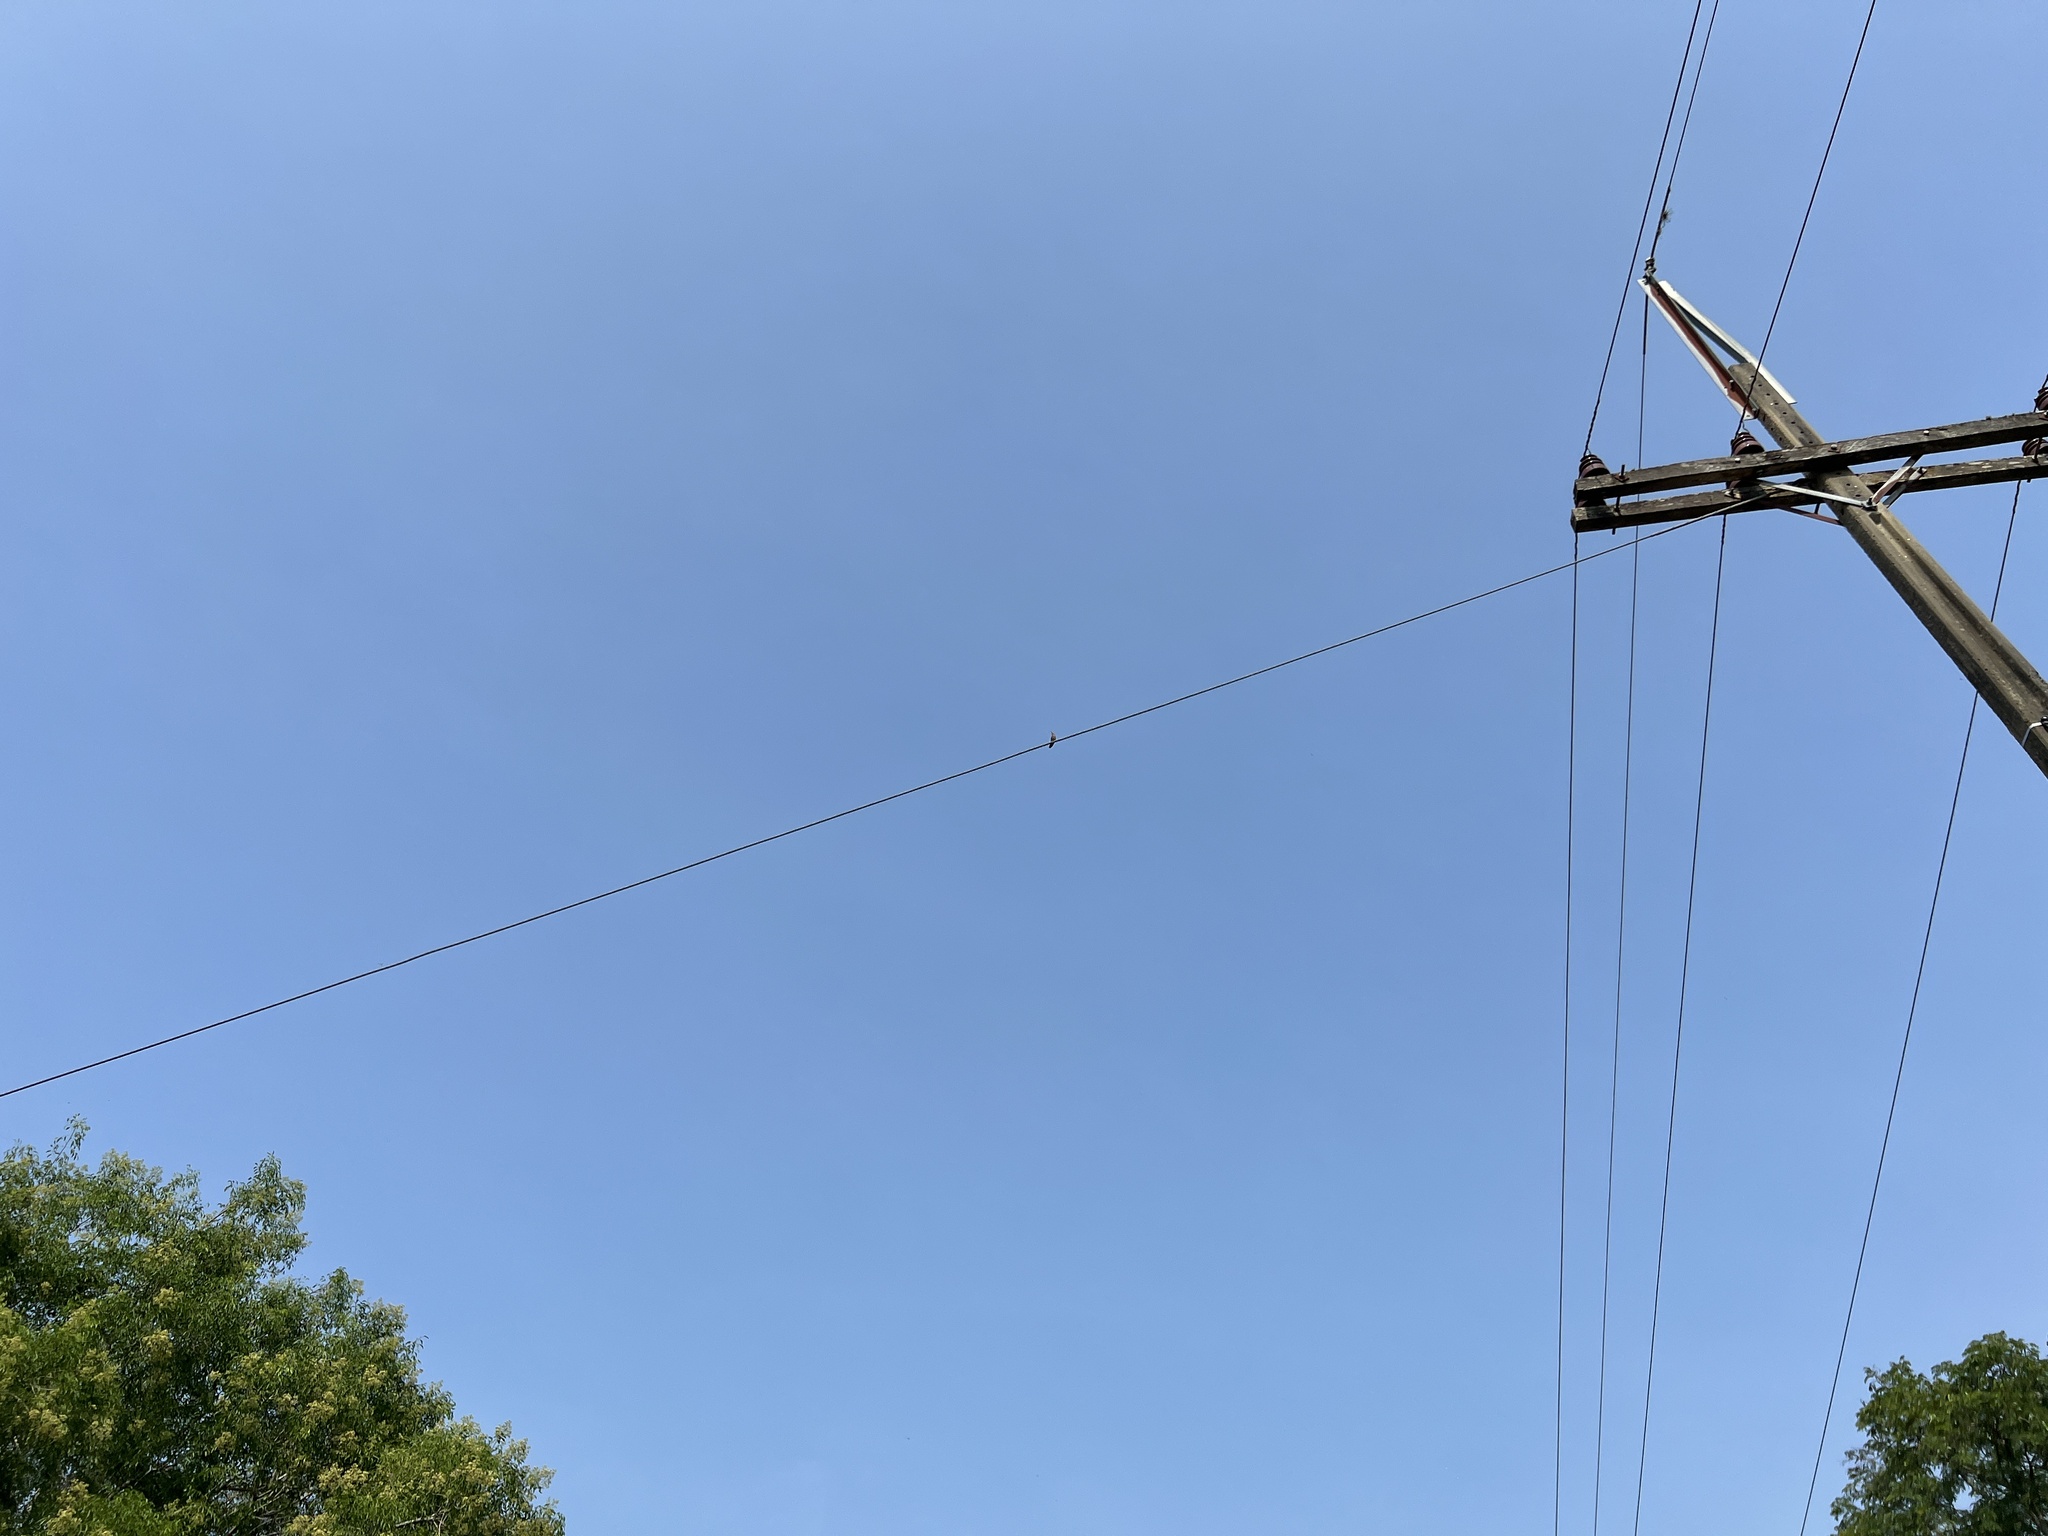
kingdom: Animalia
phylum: Chordata
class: Aves
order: Apodiformes
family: Trochilidae
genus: Hylocharis
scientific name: Hylocharis chrysura
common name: Gilded sapphire
